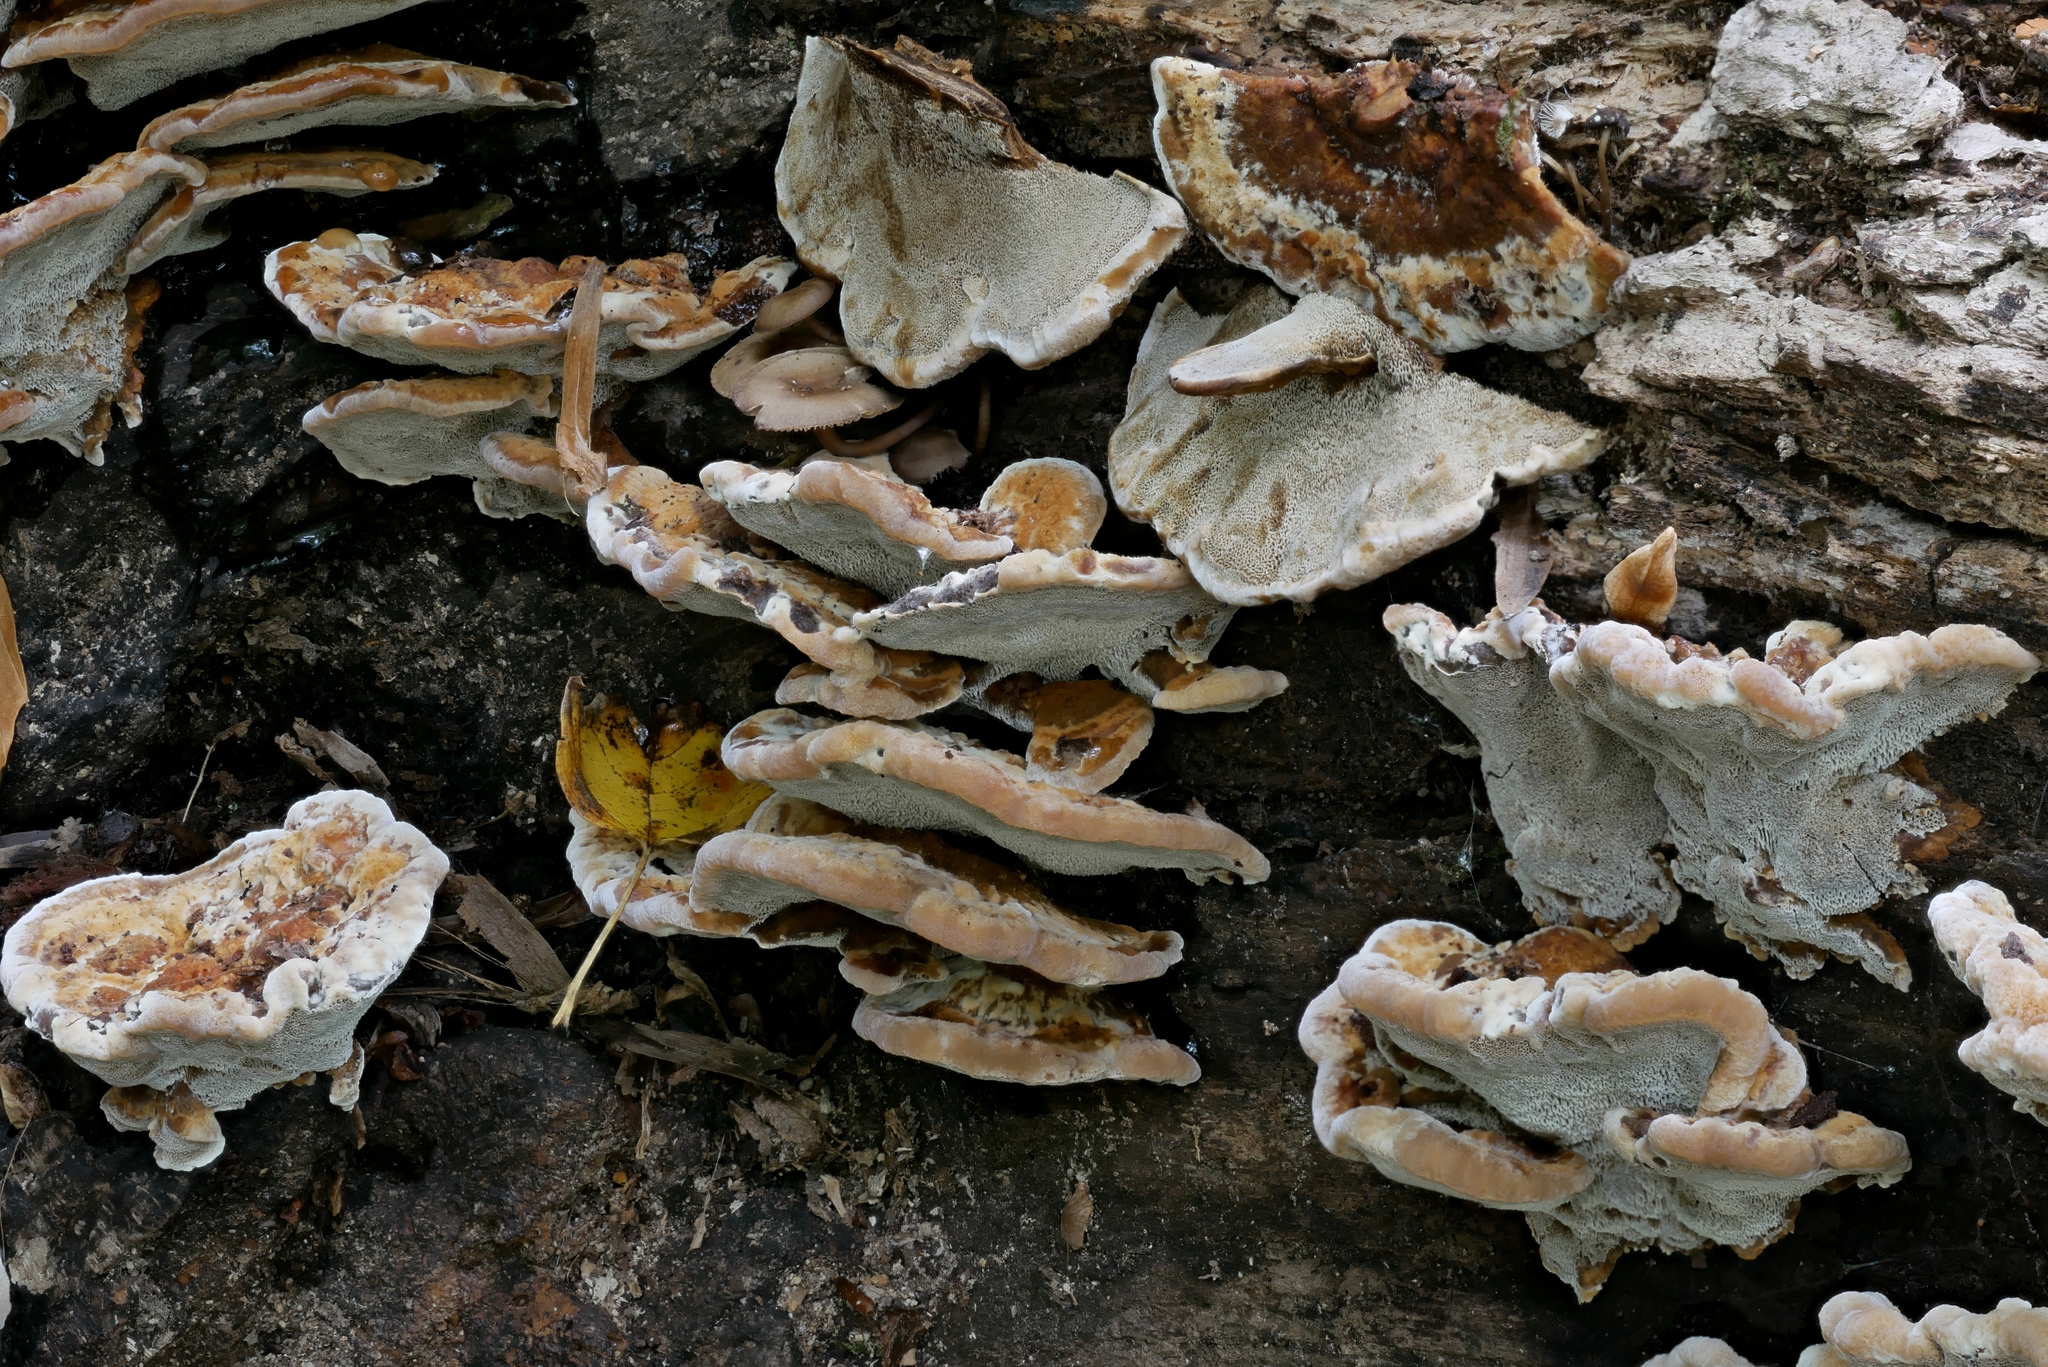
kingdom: Fungi
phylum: Basidiomycota
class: Agaricomycetes
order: Hymenochaetales
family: Hymenochaetaceae
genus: Inonotus
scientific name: Inonotus cuticularis
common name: Clustered bracket
